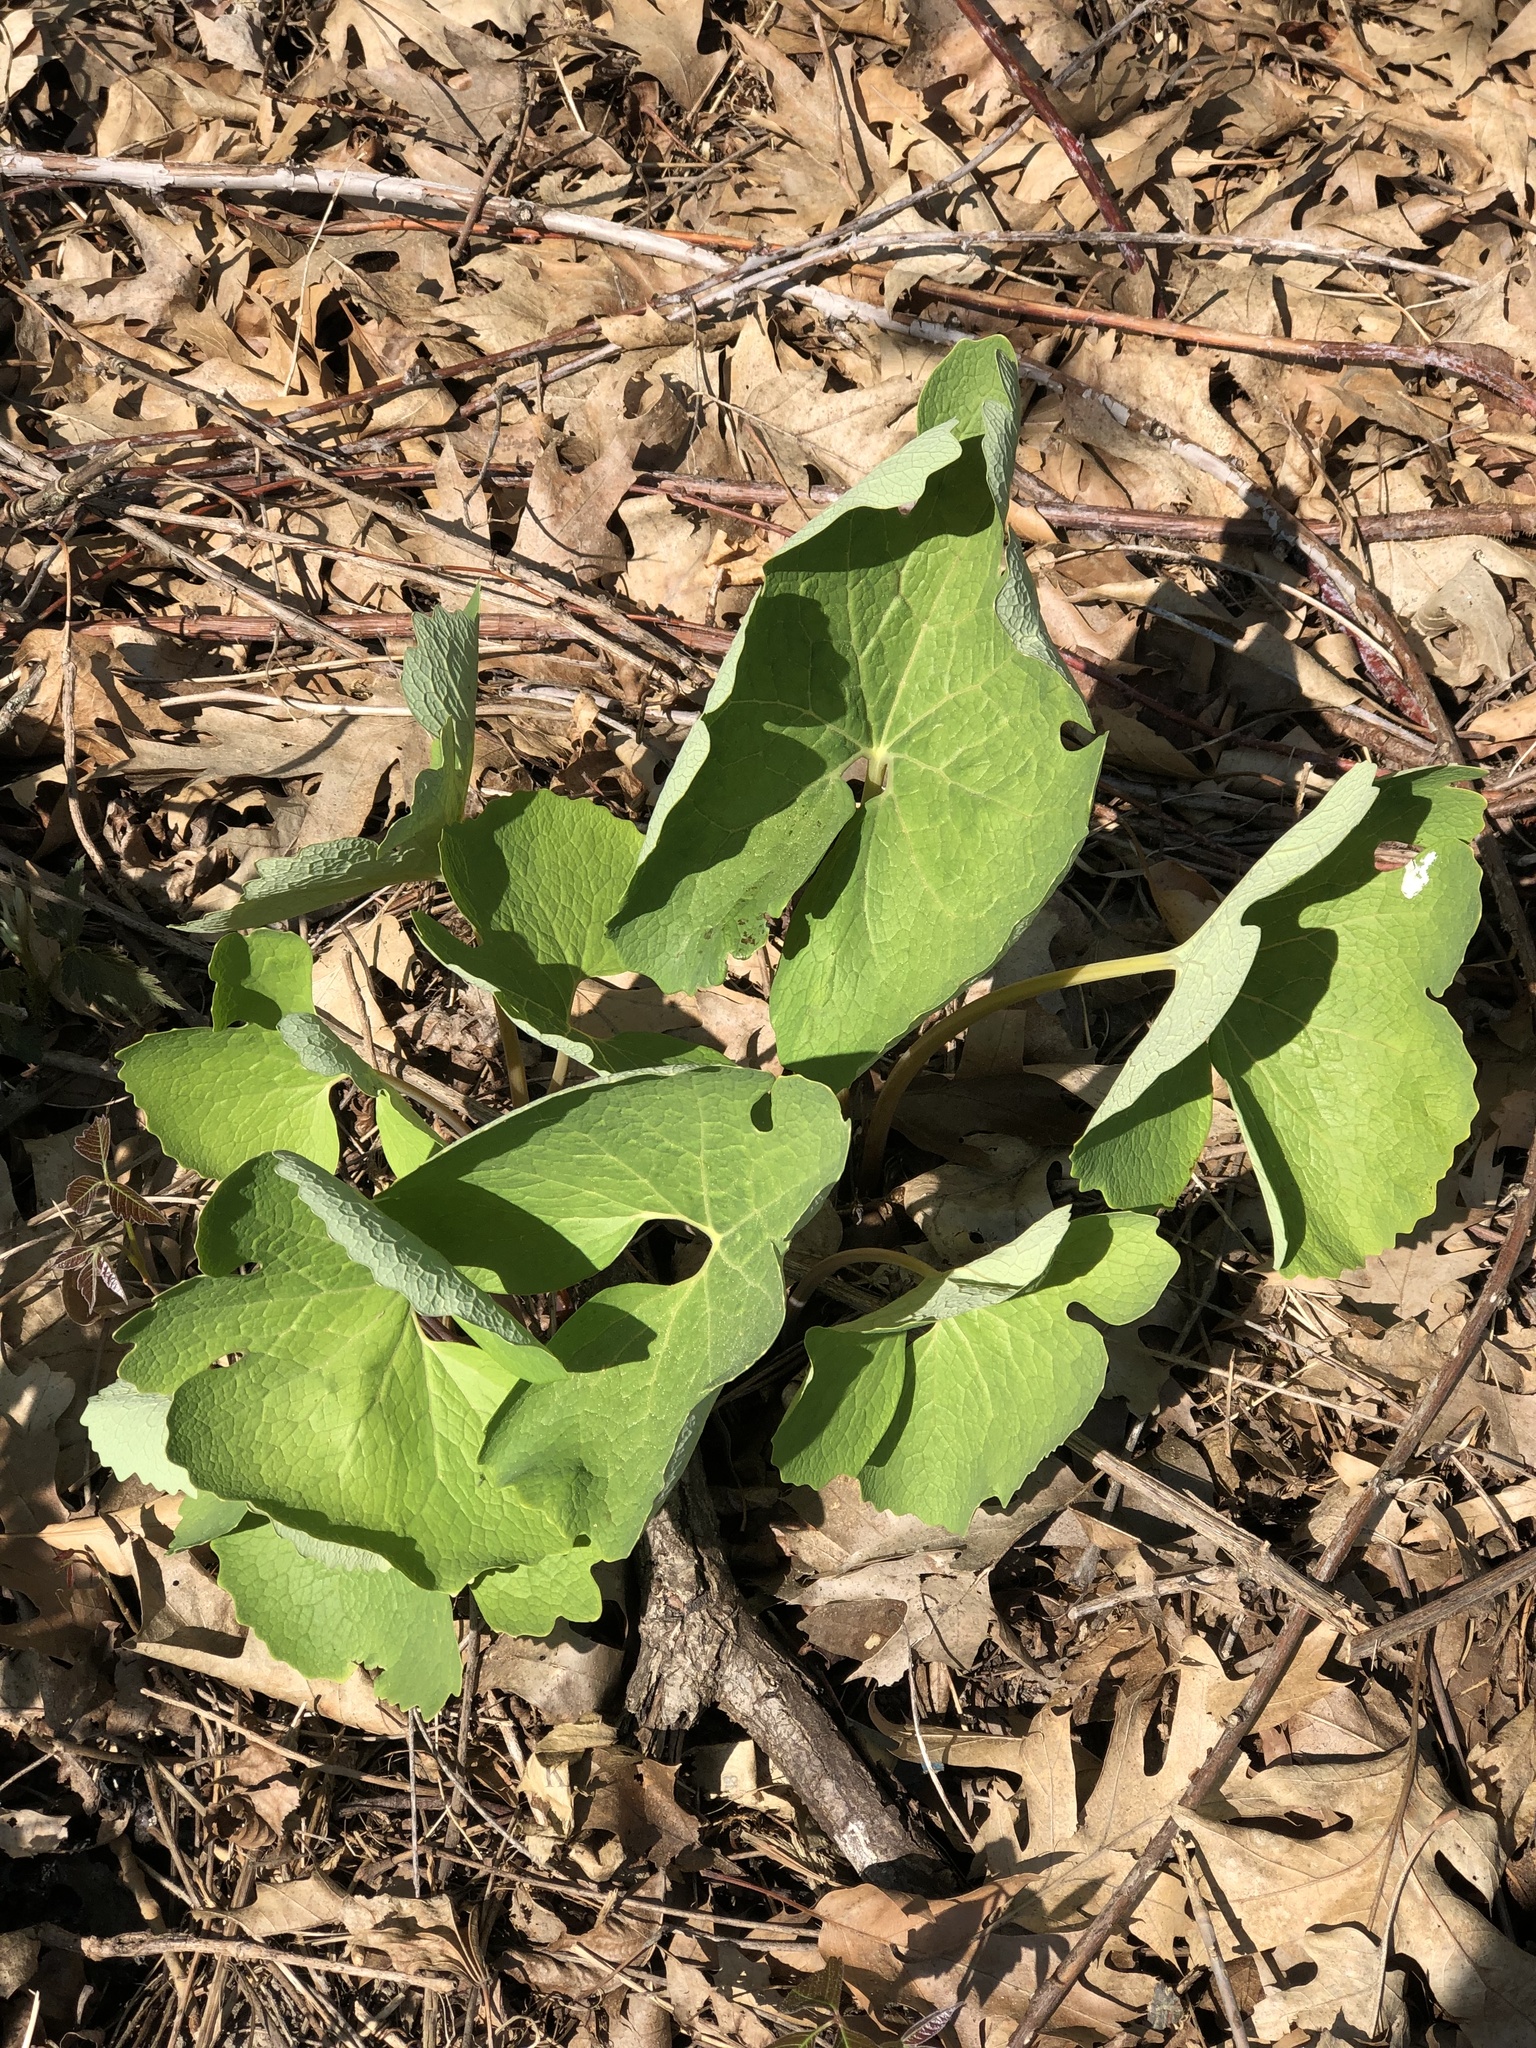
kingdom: Plantae
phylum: Tracheophyta
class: Magnoliopsida
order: Ranunculales
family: Papaveraceae
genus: Sanguinaria
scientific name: Sanguinaria canadensis
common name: Bloodroot
